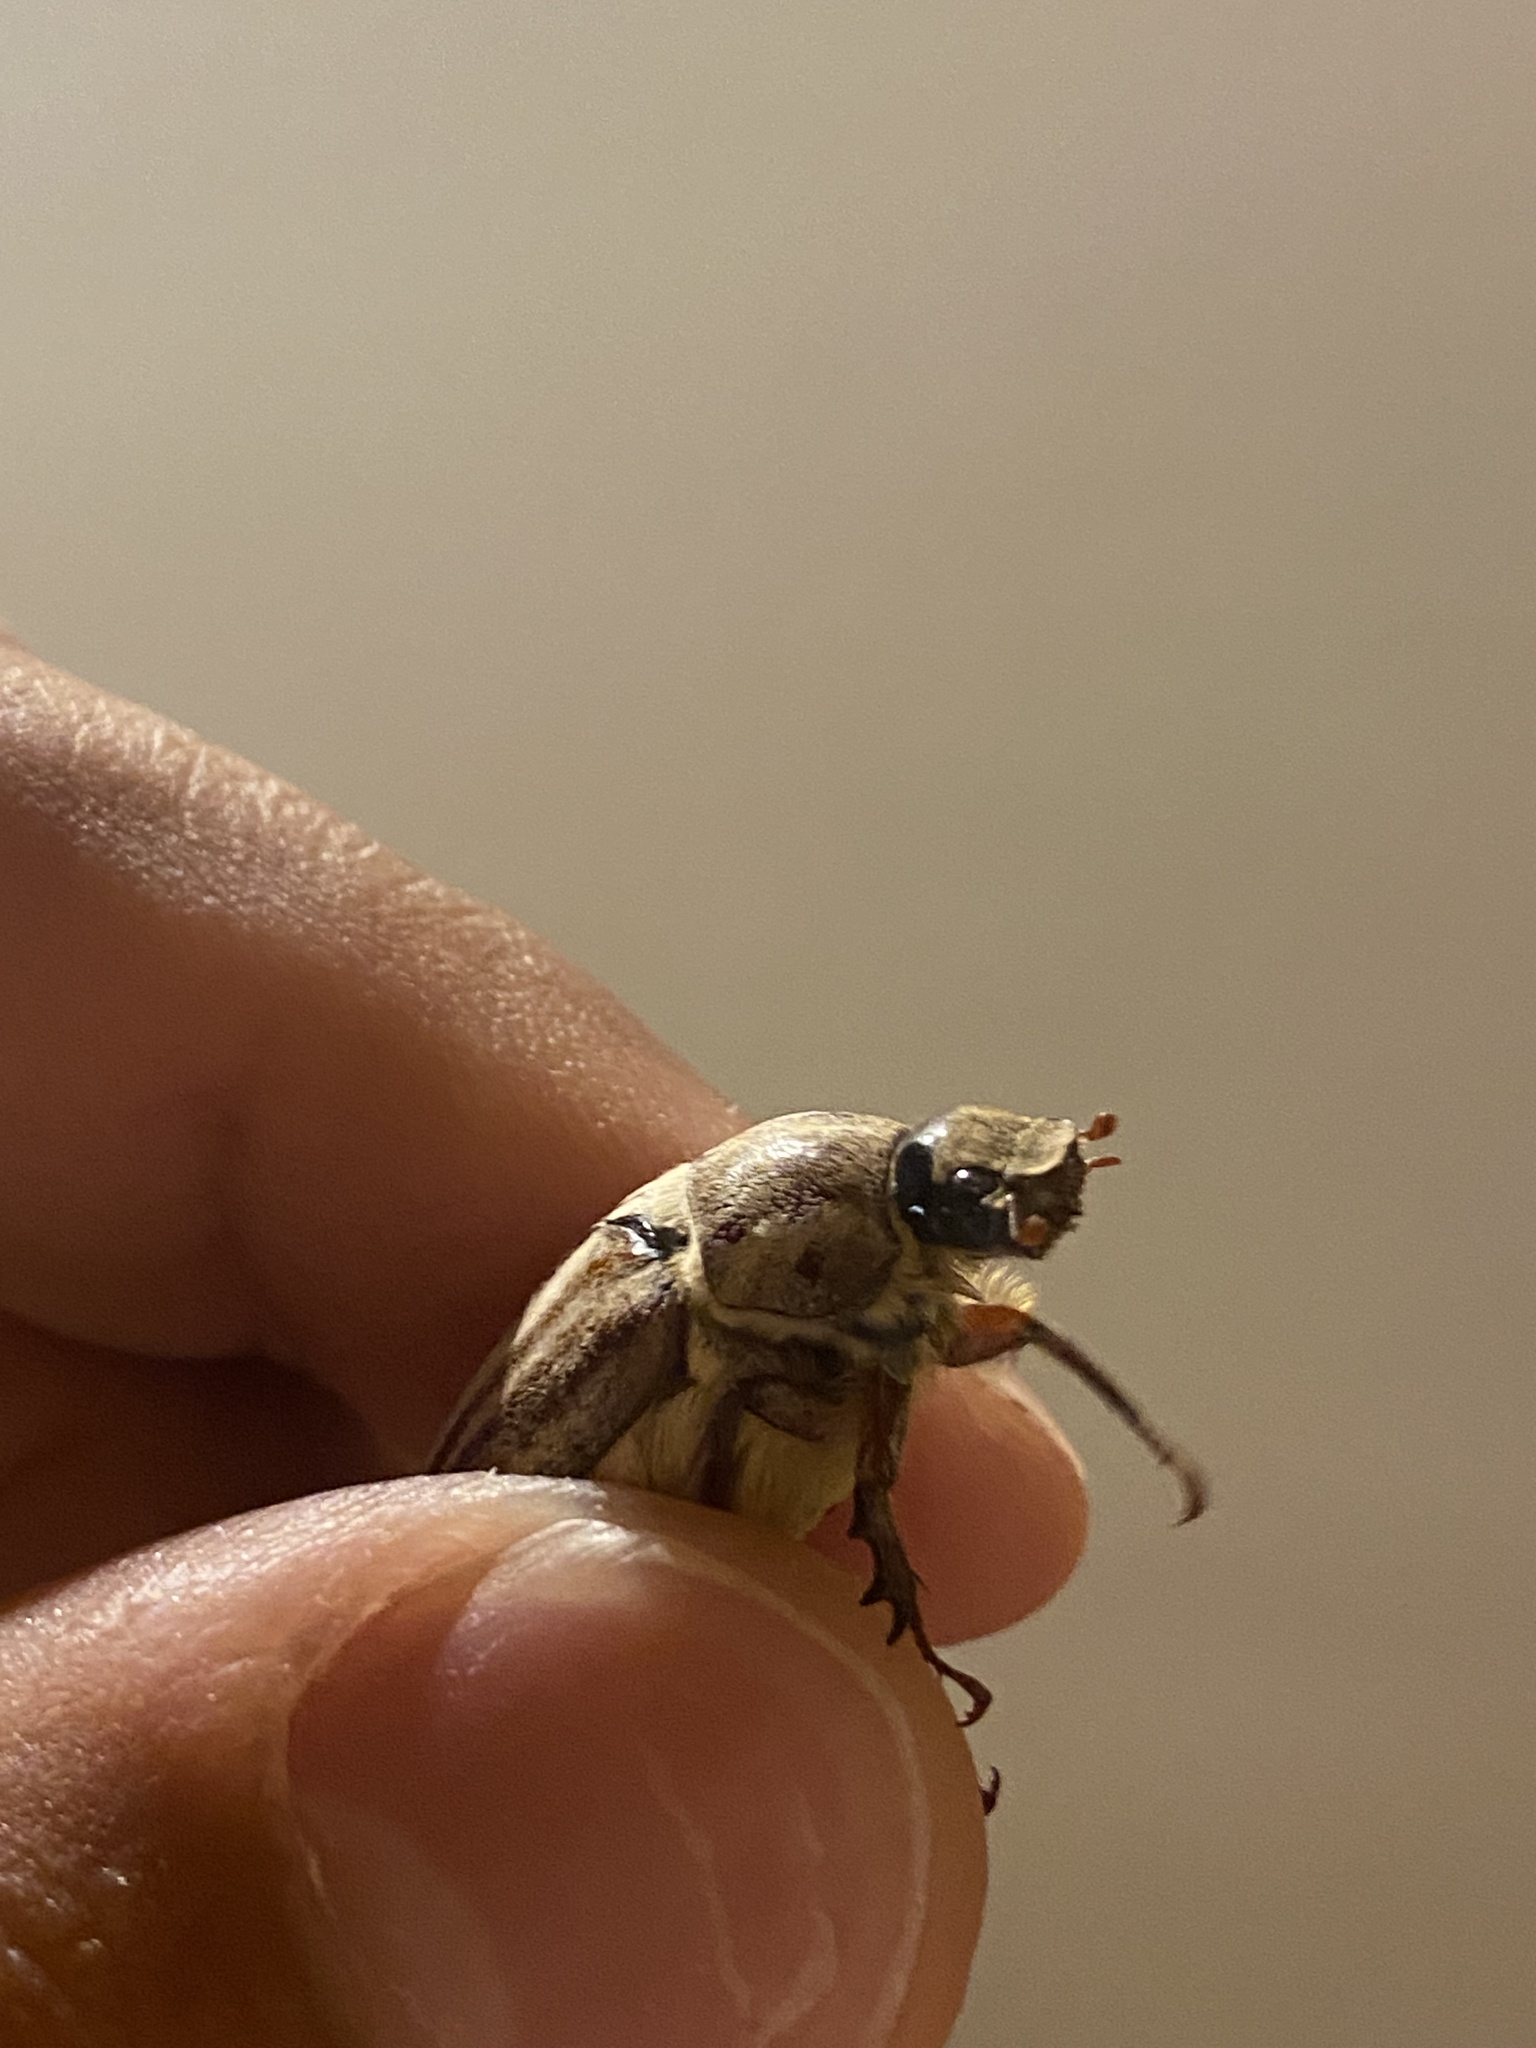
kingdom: Animalia
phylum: Arthropoda
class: Insecta
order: Coleoptera
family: Scarabaeidae
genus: Anoxia
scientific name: Anoxia matutinalis
